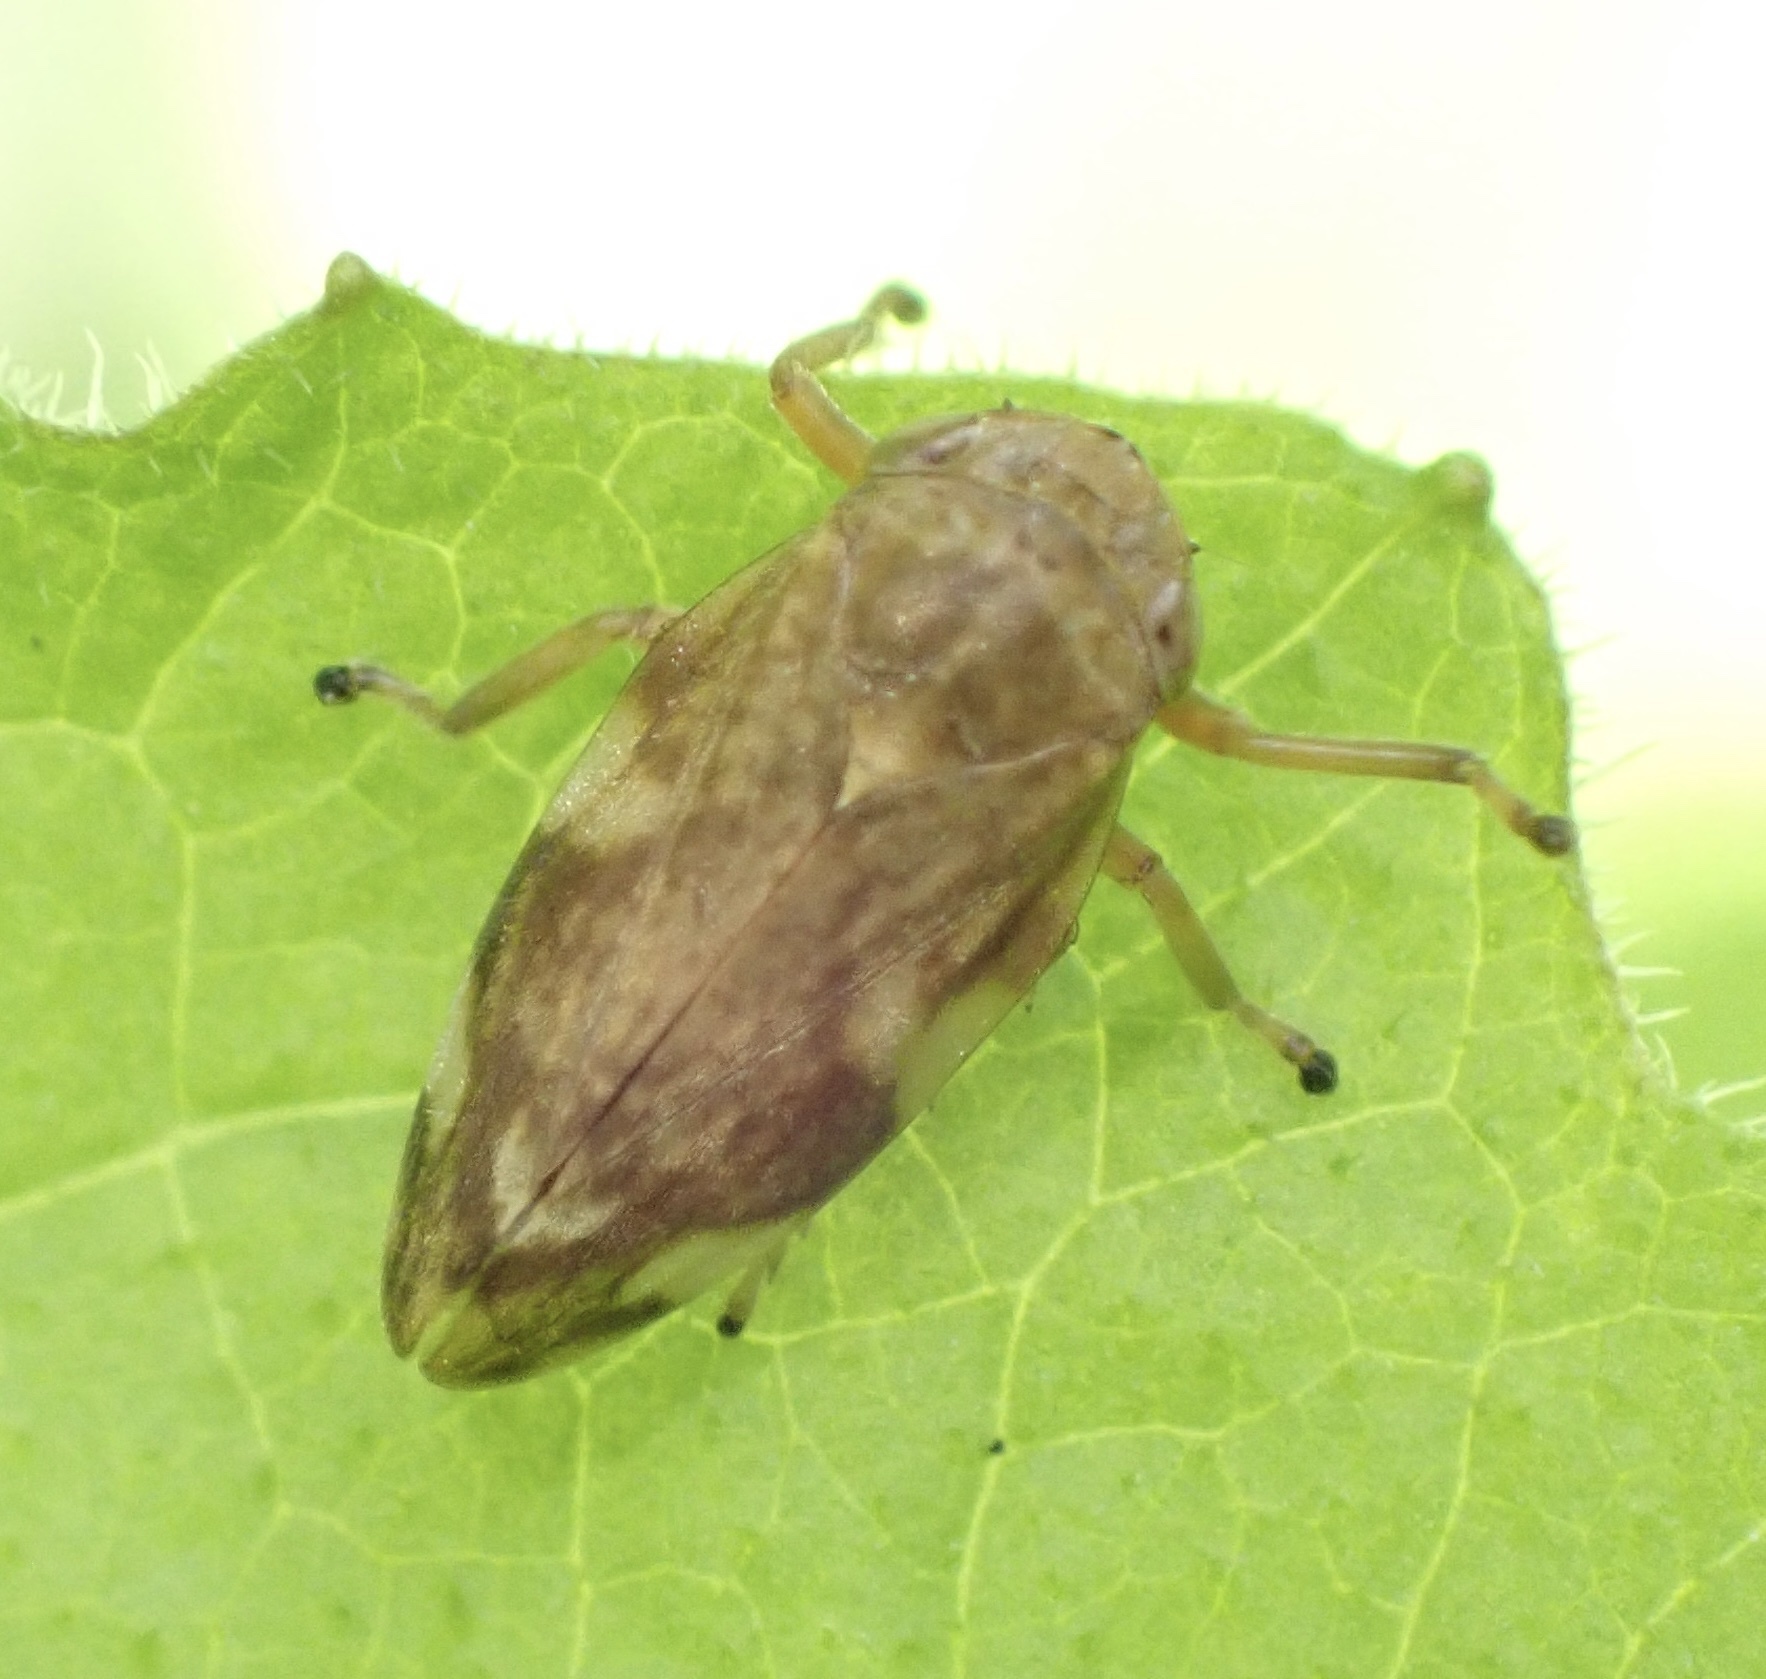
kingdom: Animalia
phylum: Arthropoda
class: Insecta
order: Hemiptera
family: Aphrophoridae
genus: Philaenus
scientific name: Philaenus spumarius
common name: Meadow spittlebug
